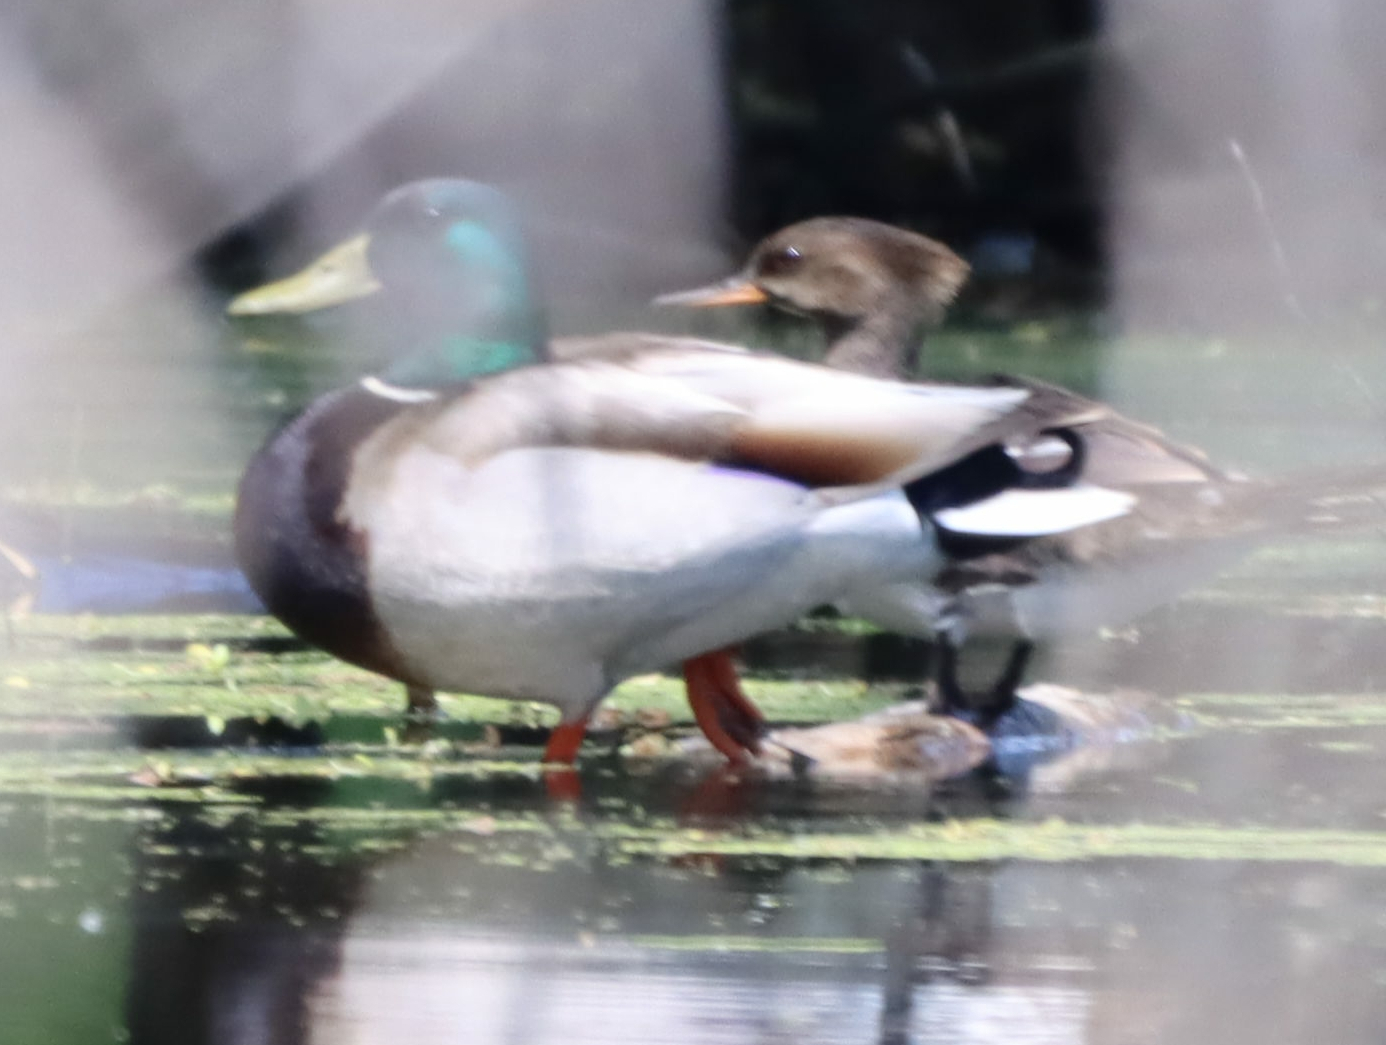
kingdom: Animalia
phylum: Chordata
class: Aves
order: Anseriformes
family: Anatidae
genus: Anas
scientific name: Anas platyrhynchos
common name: Mallard
